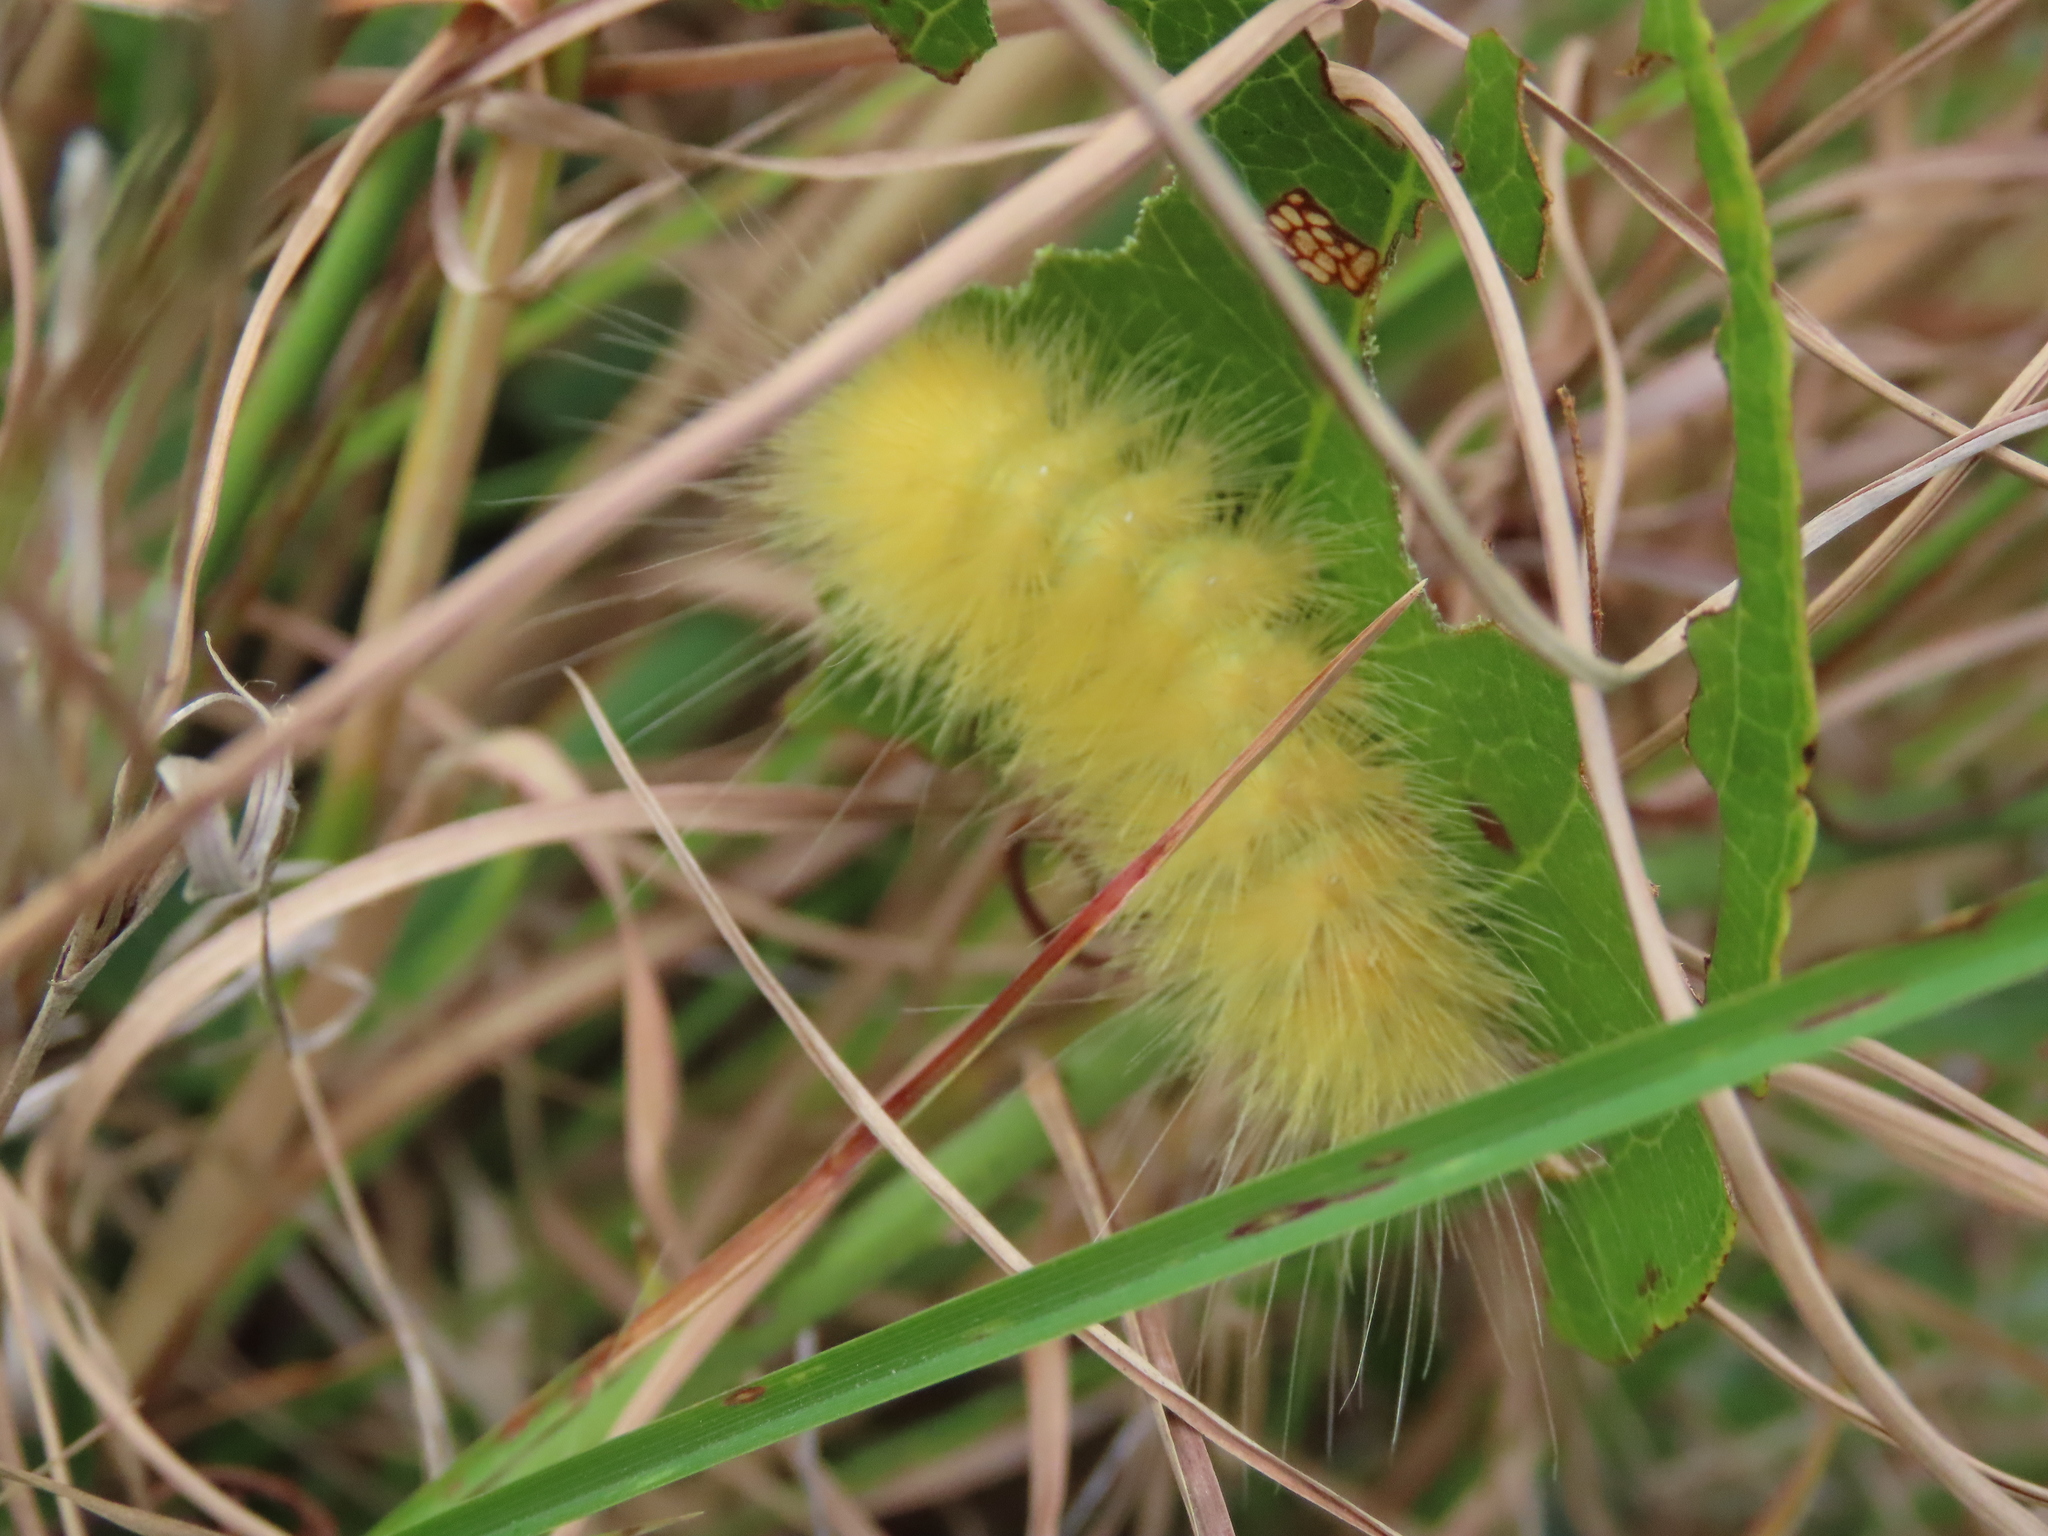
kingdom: Animalia
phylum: Arthropoda
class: Insecta
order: Lepidoptera
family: Erebidae
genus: Spilosoma
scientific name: Spilosoma virginica
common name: Virginia tiger moth
